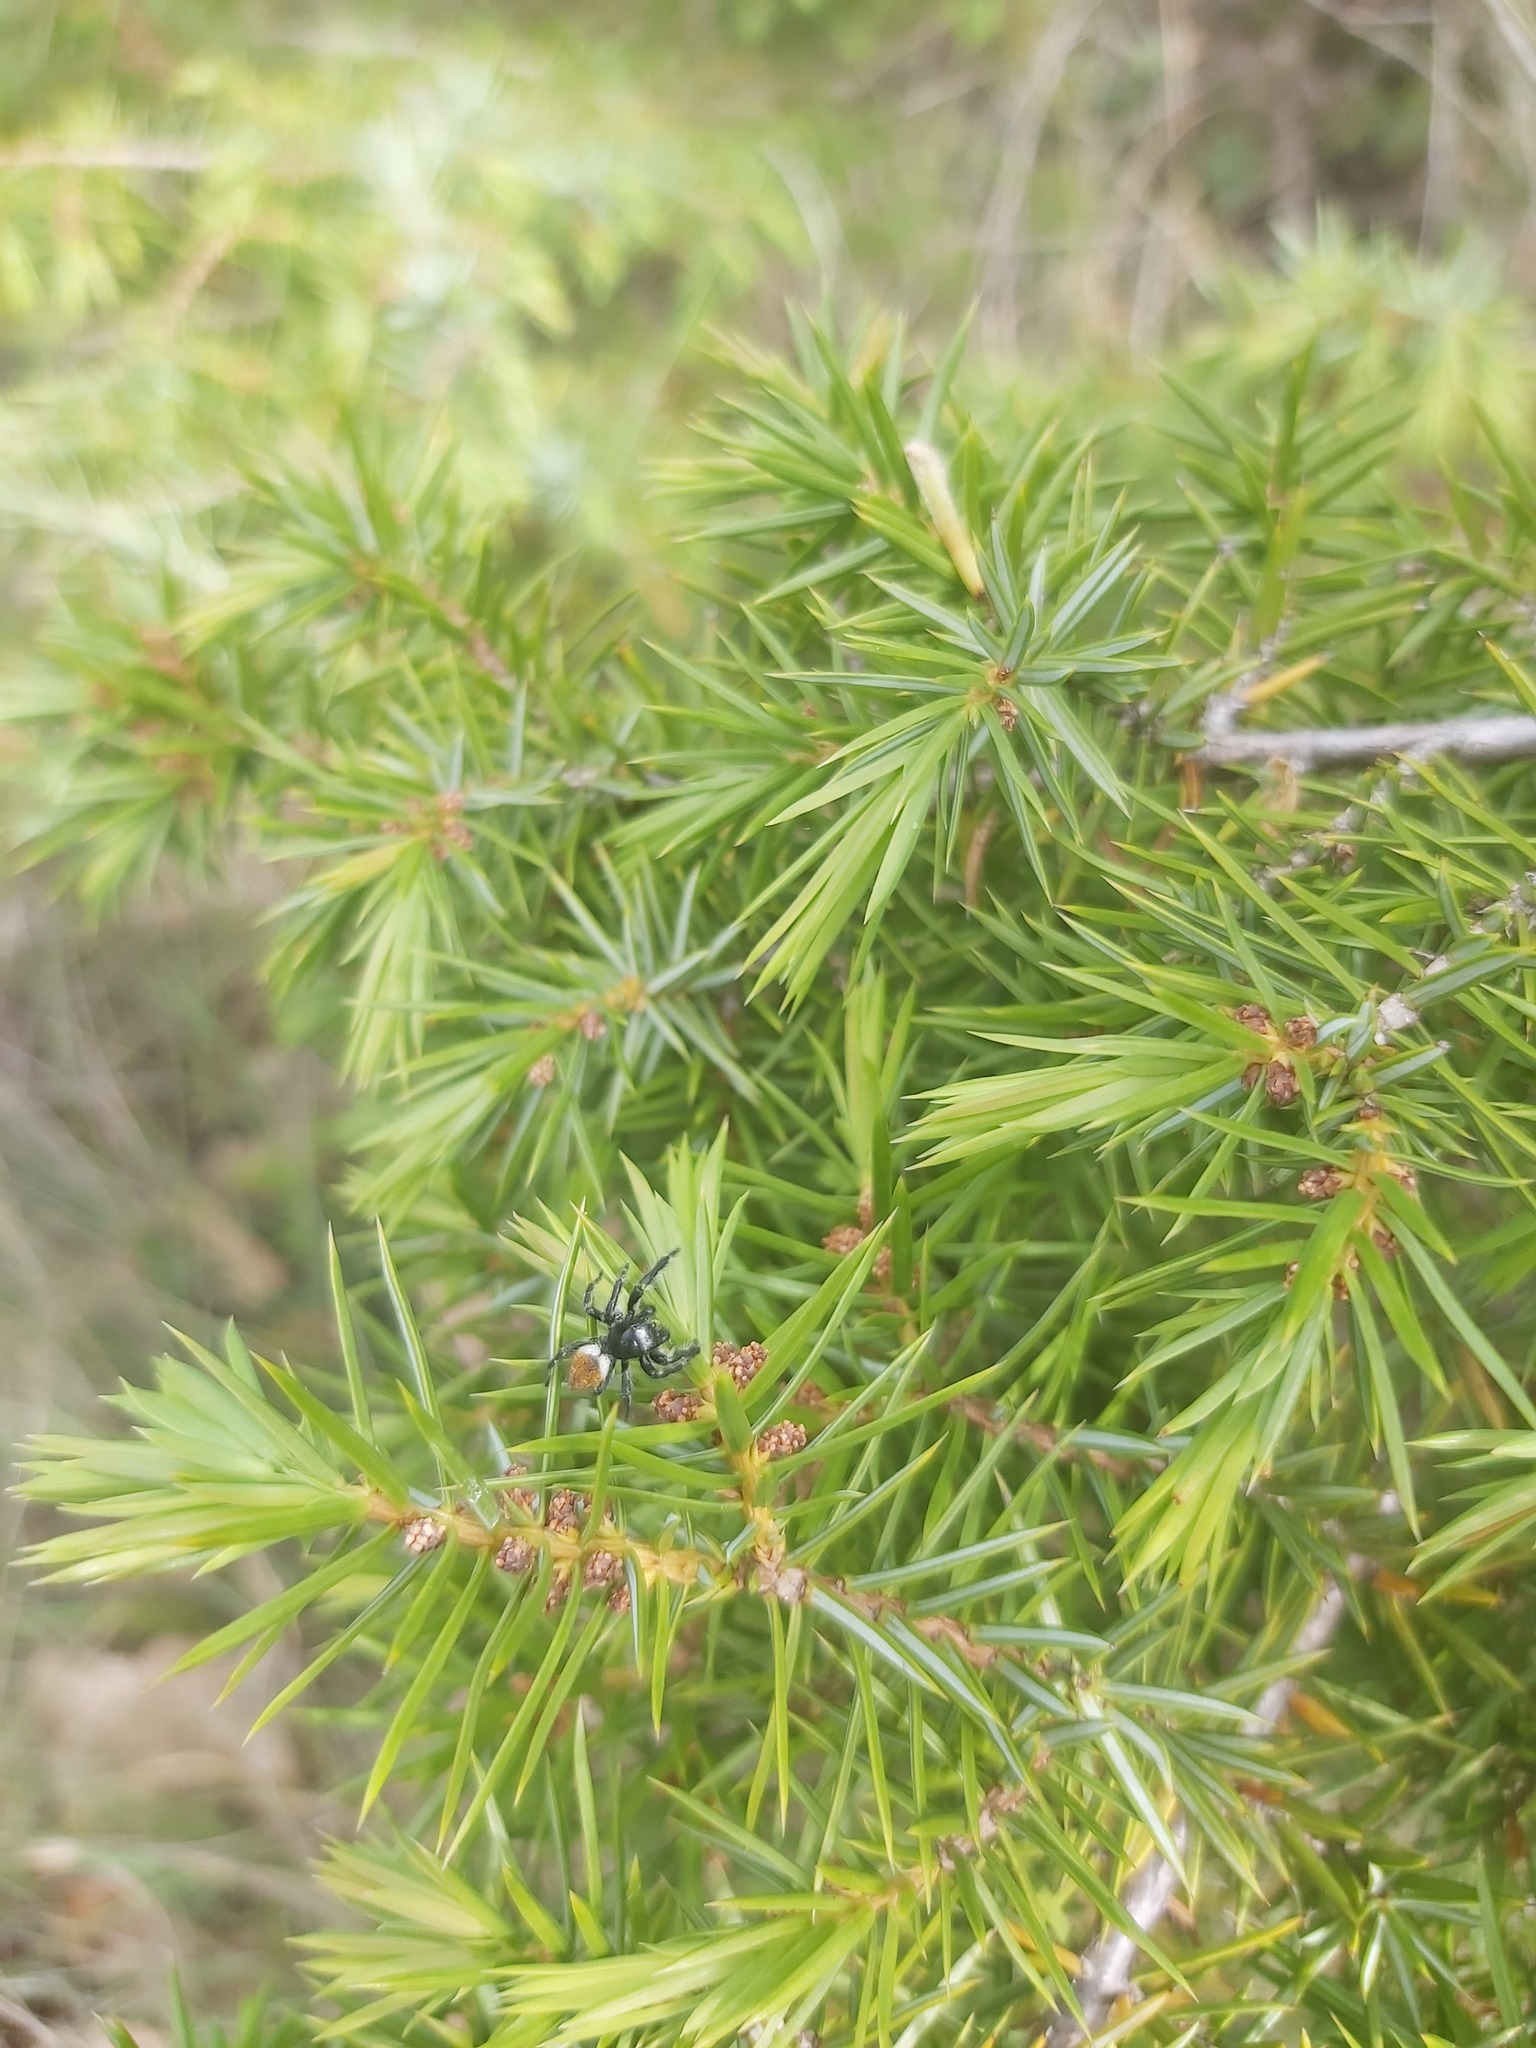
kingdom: Animalia
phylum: Arthropoda
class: Arachnida
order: Araneae
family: Salticidae
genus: Carrhotus
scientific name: Carrhotus xanthogramma
